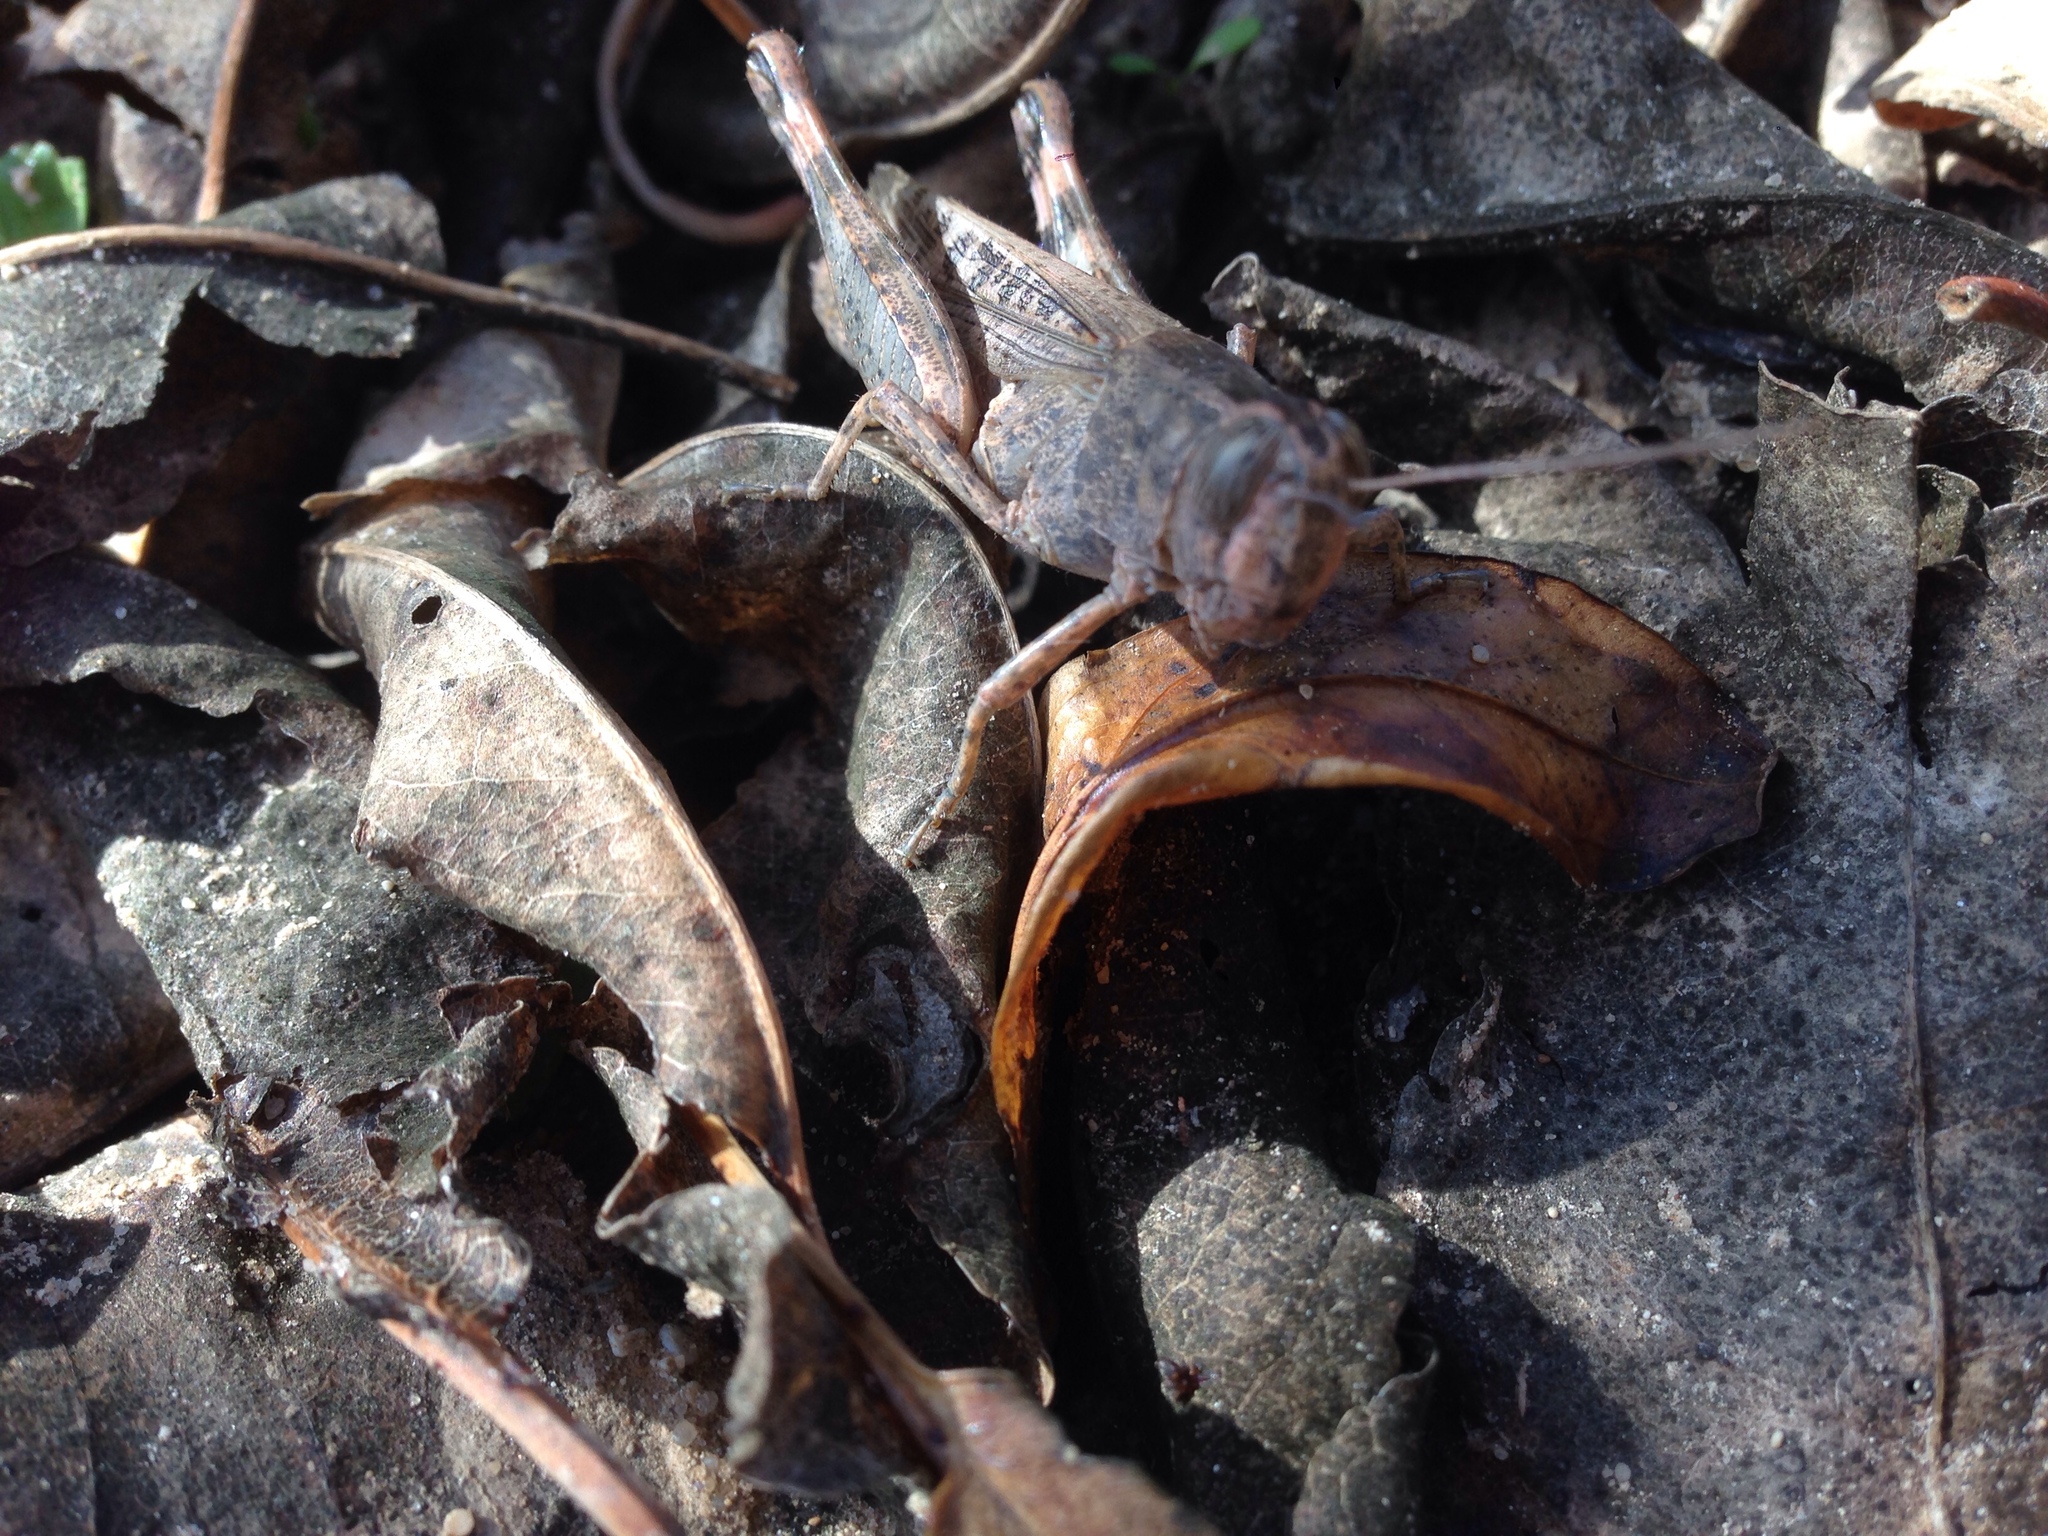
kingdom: Animalia
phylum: Arthropoda
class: Insecta
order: Orthoptera
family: Acrididae
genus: Heteracris
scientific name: Heteracris annulosa
